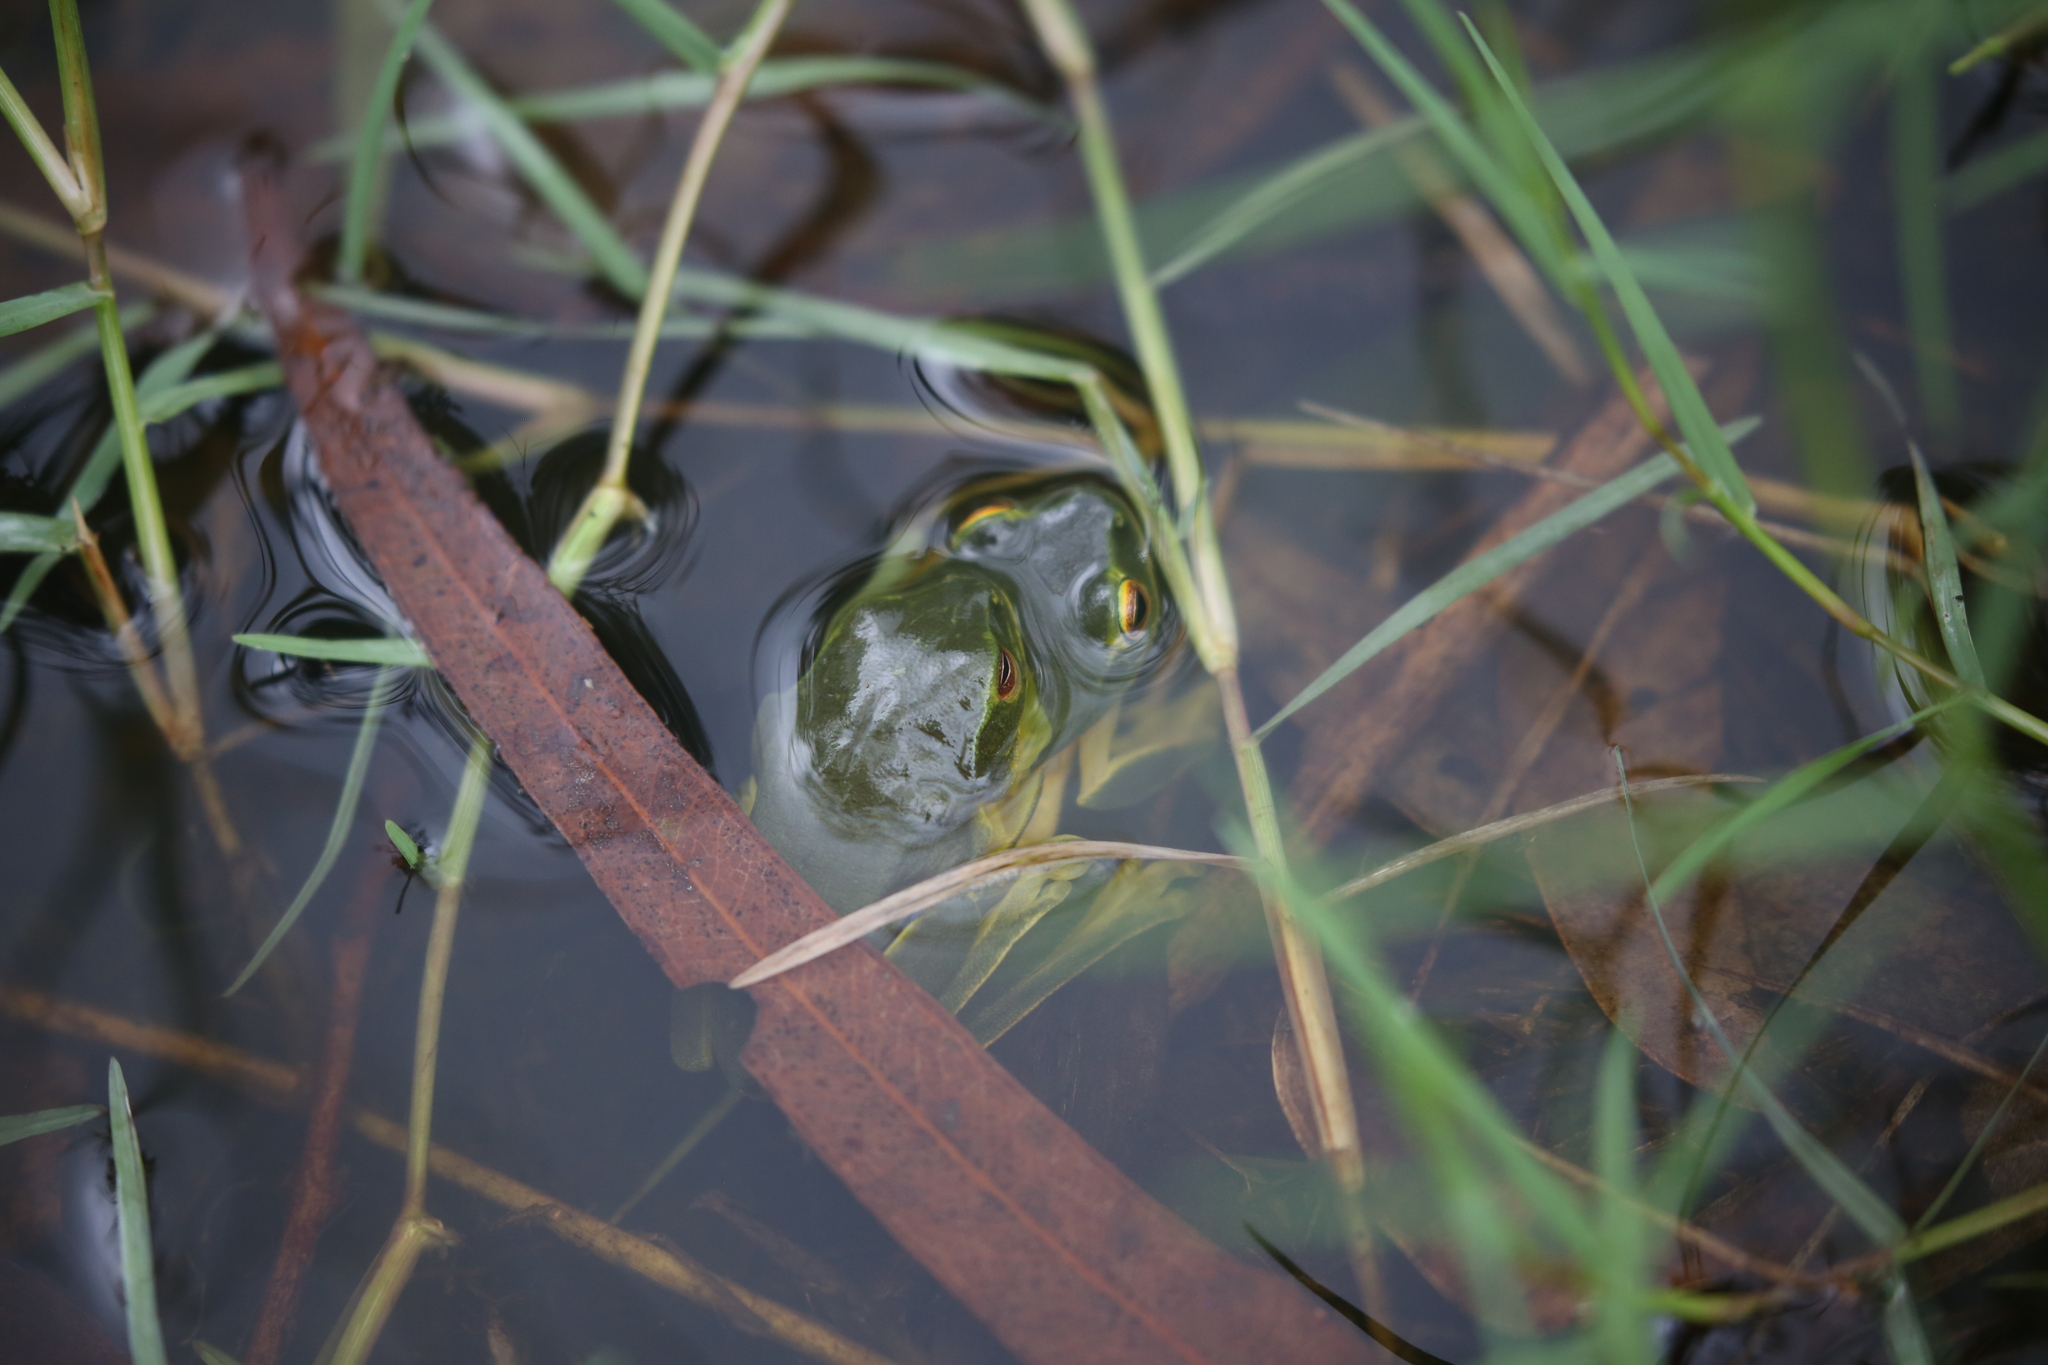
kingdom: Animalia
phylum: Chordata
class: Amphibia
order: Anura
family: Pelodryadidae
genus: Ranoidea
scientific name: Ranoidea gracilenta
